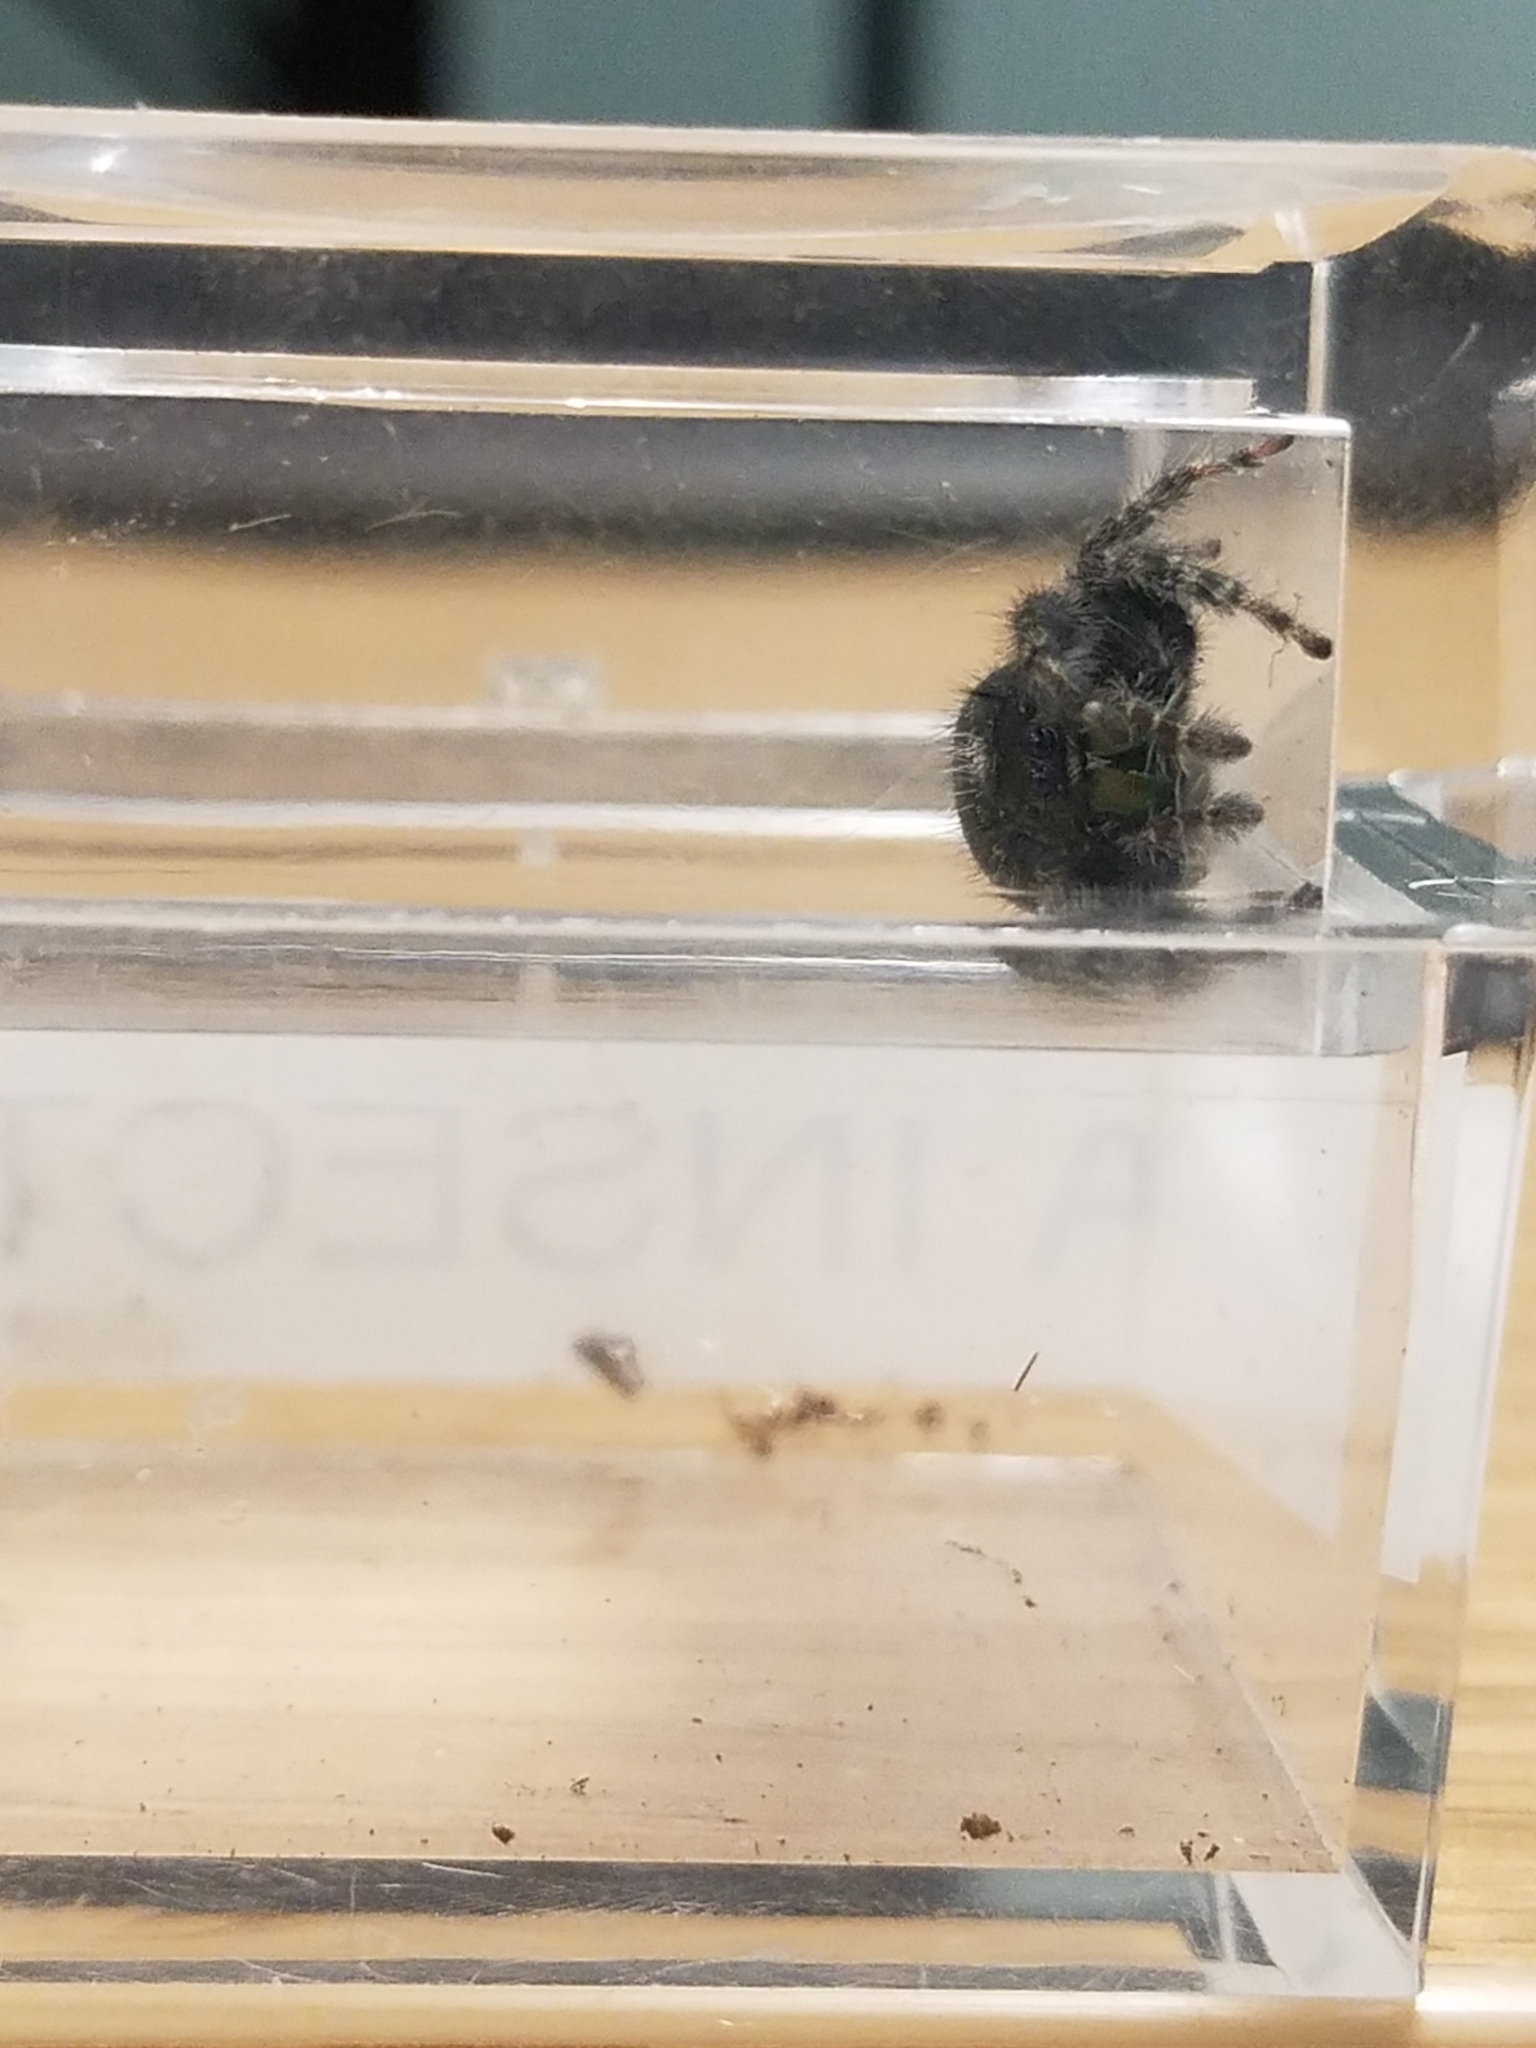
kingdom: Animalia
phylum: Arthropoda
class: Arachnida
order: Araneae
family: Salticidae
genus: Phidippus
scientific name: Phidippus audax
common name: Bold jumper
